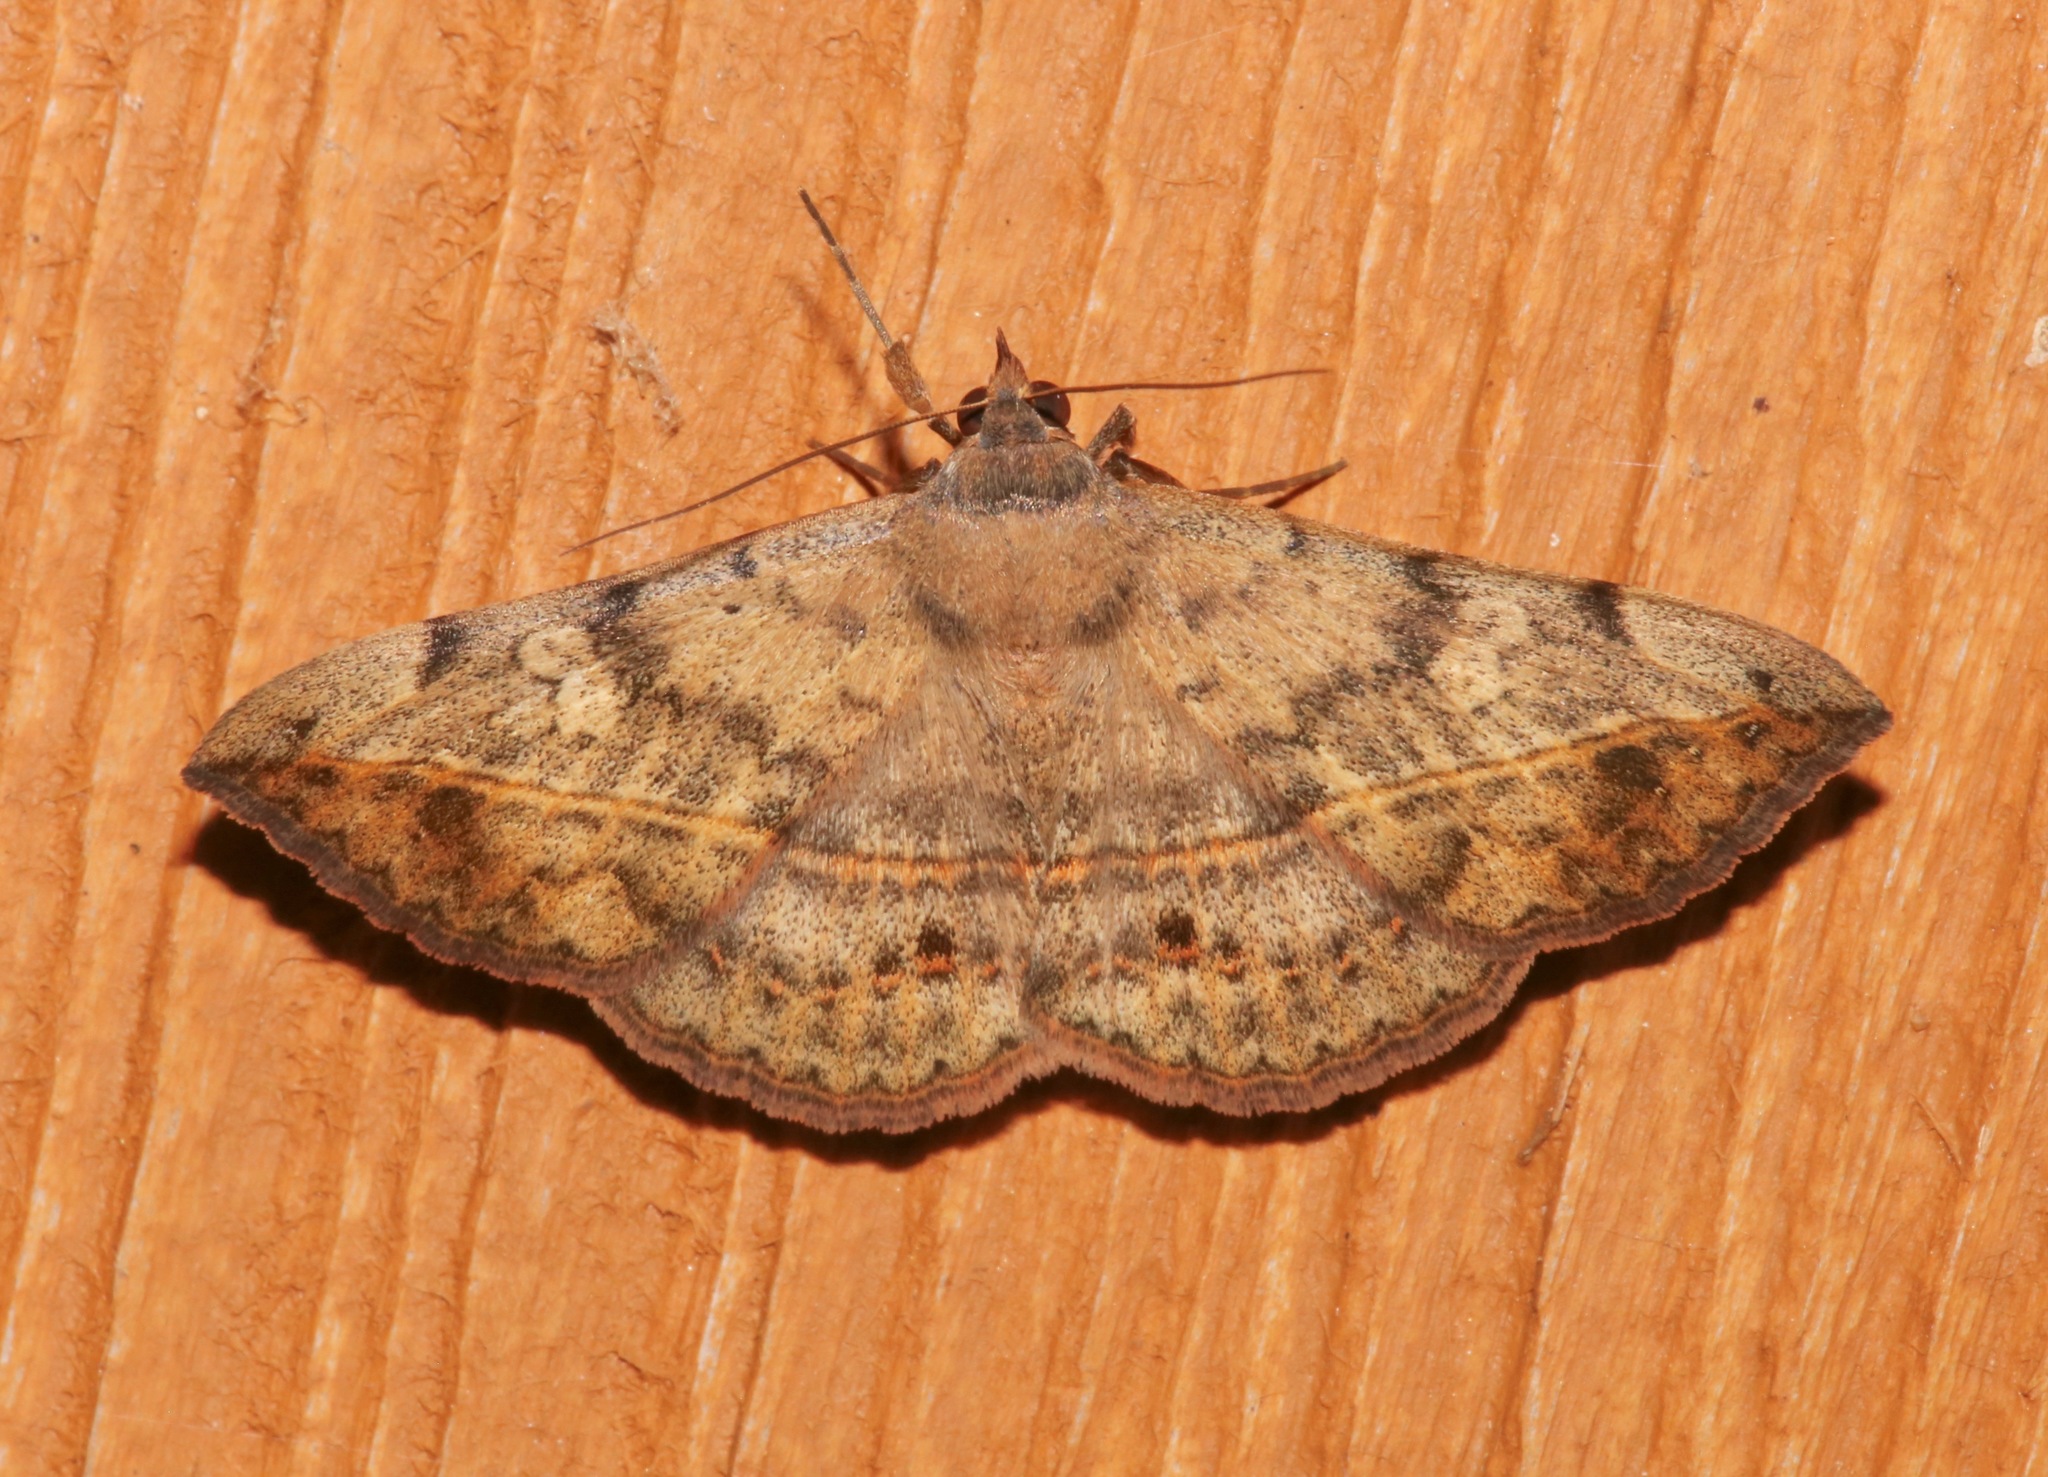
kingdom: Animalia
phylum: Arthropoda
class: Insecta
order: Lepidoptera
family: Erebidae
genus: Anticarsia
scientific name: Anticarsia gemmatalis
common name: Cutworm moth
